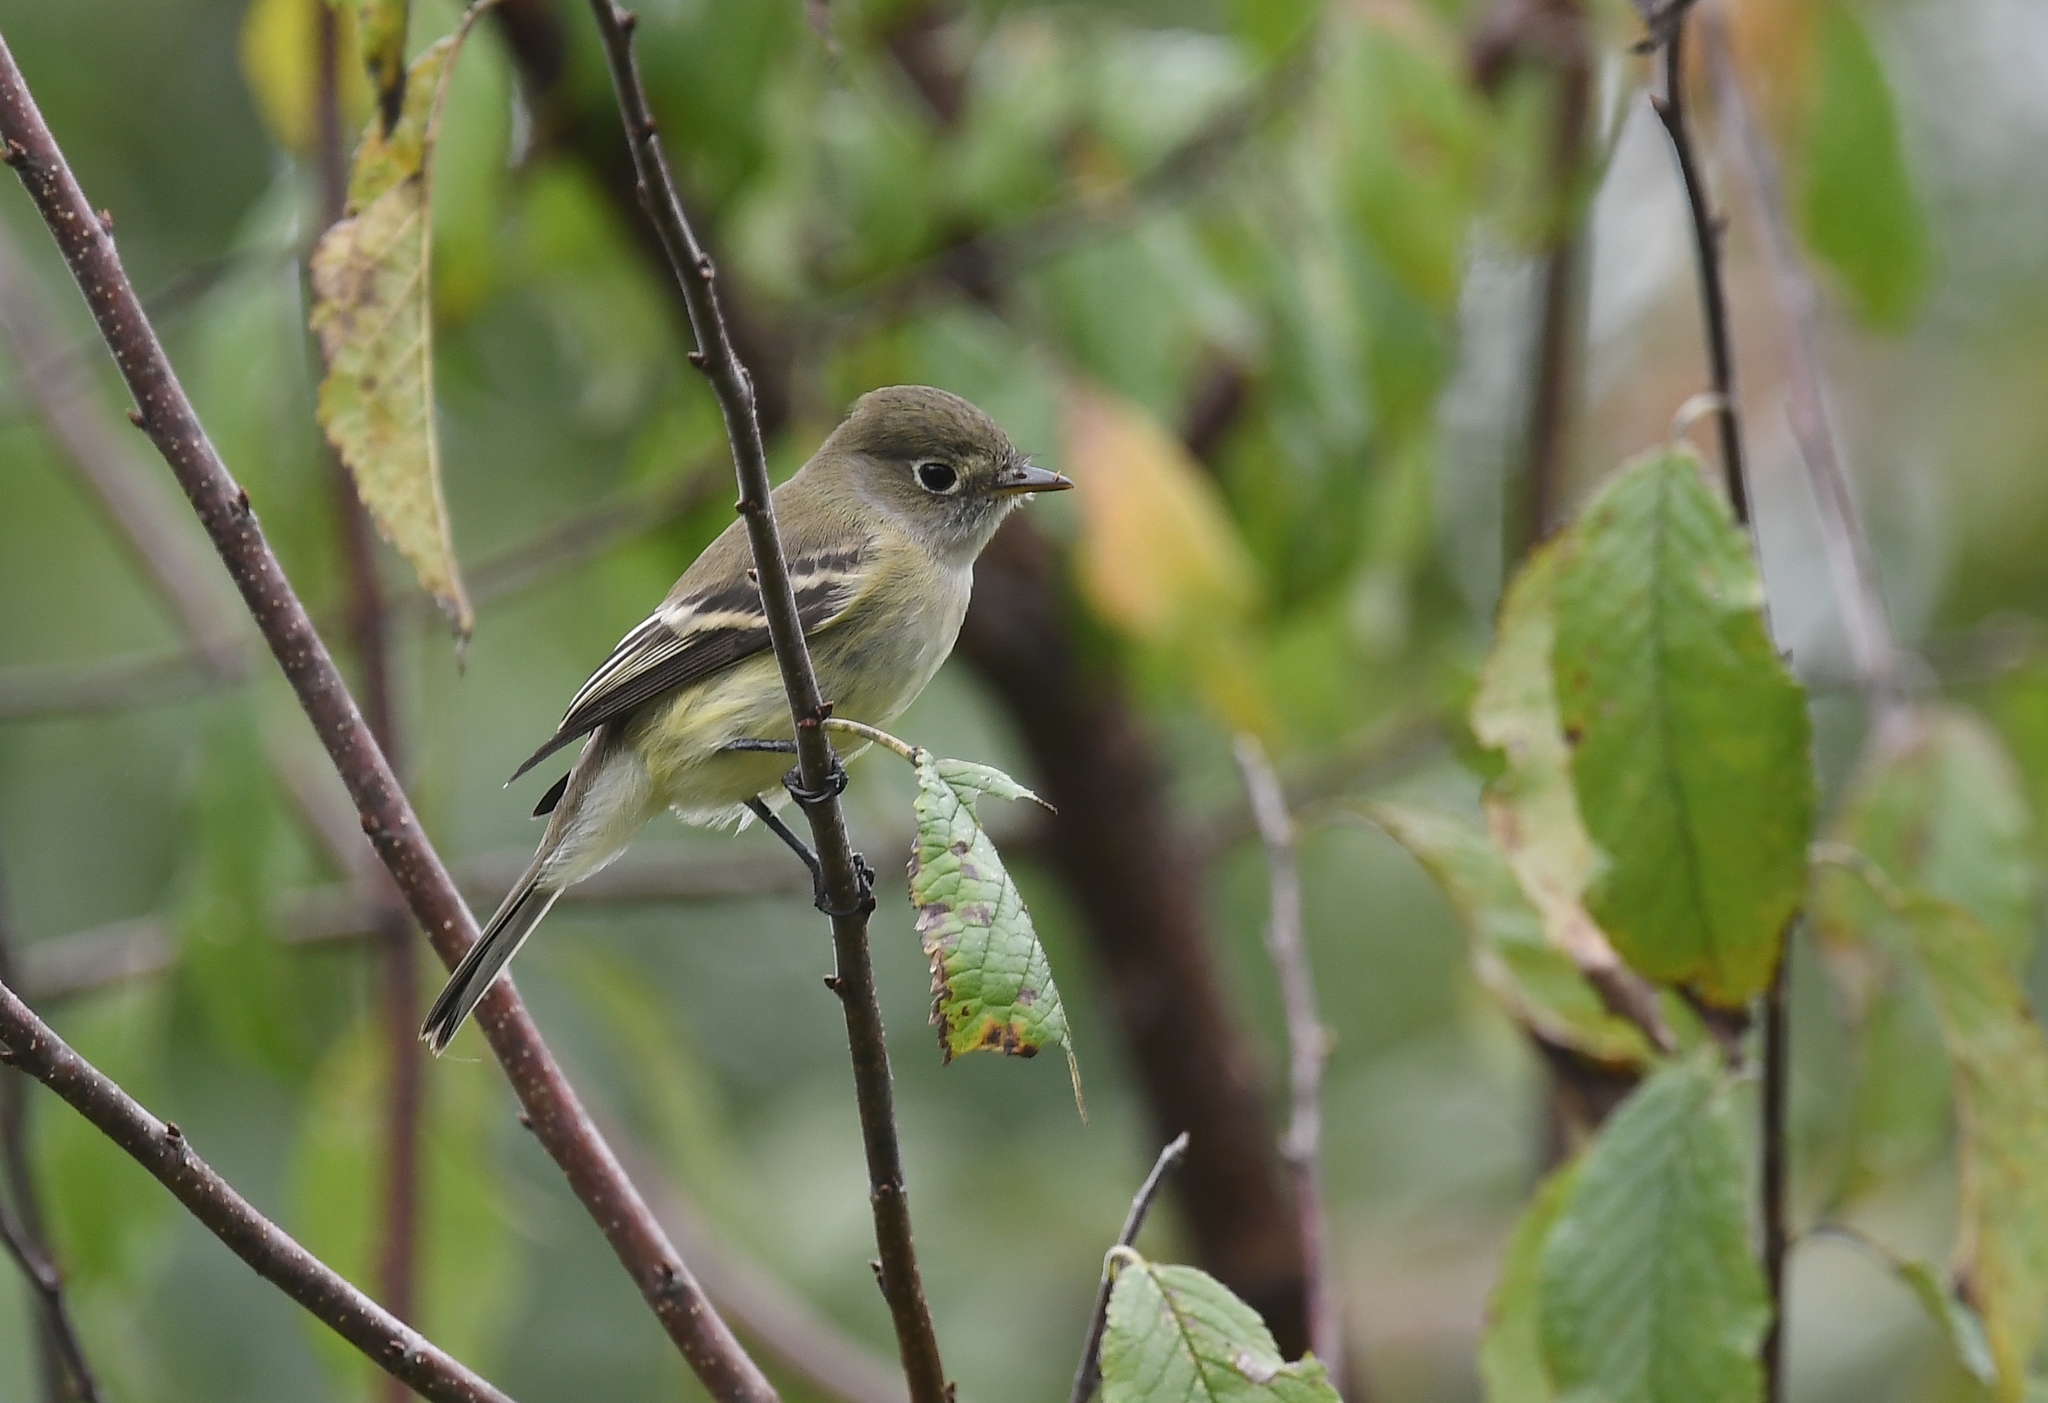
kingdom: Animalia
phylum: Chordata
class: Aves
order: Passeriformes
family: Tyrannidae
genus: Empidonax
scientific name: Empidonax flaviventris
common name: Yellow-bellied flycatcher
